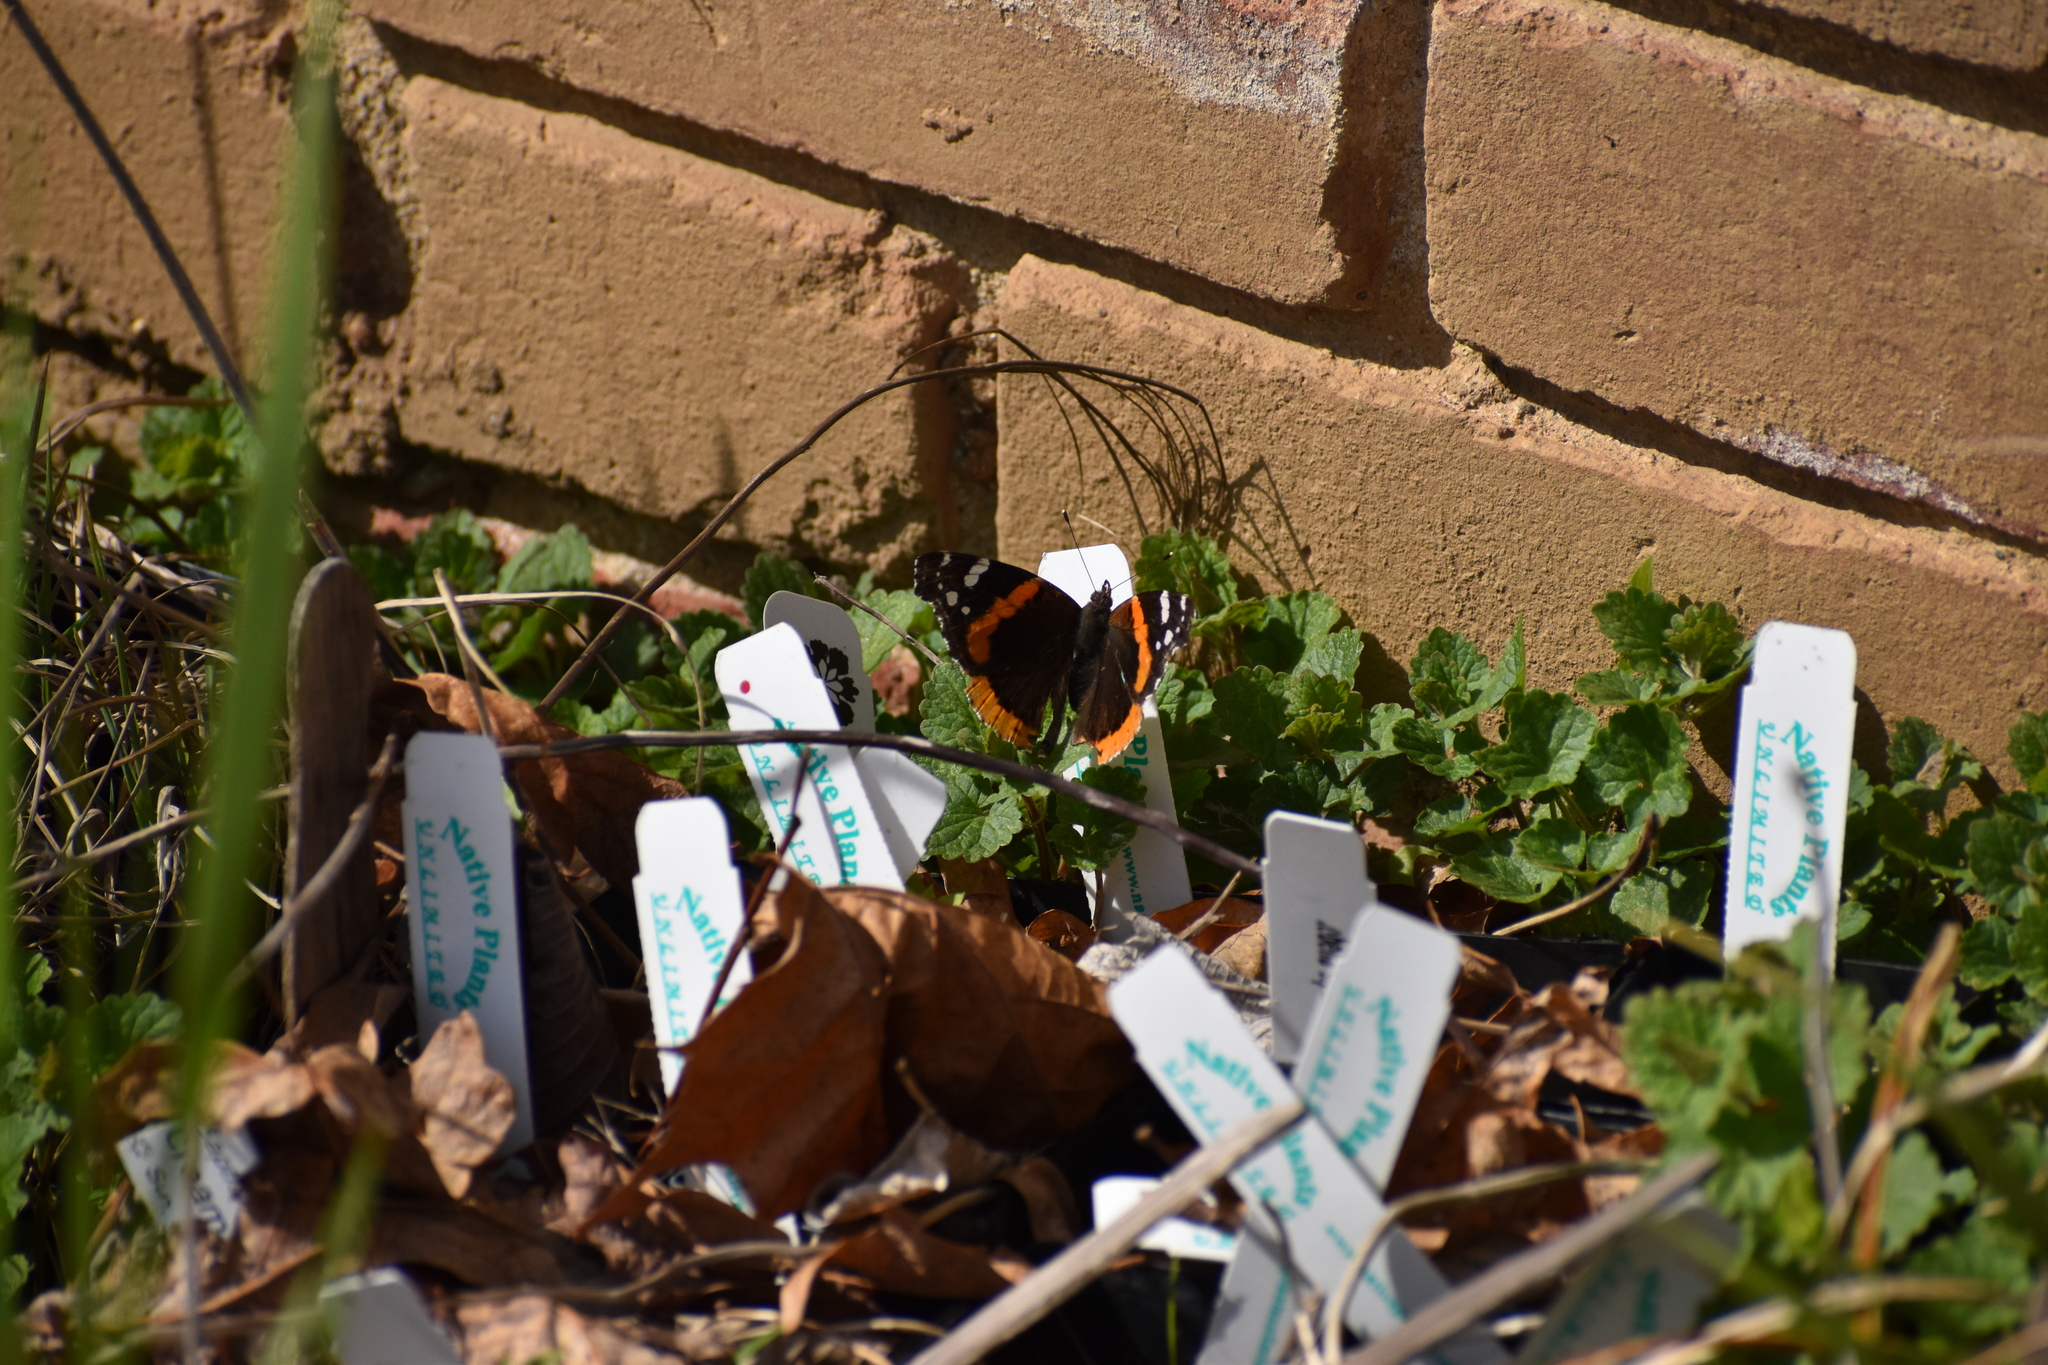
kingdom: Animalia
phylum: Arthropoda
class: Insecta
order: Lepidoptera
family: Nymphalidae
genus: Vanessa
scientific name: Vanessa atalanta
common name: Red admiral
